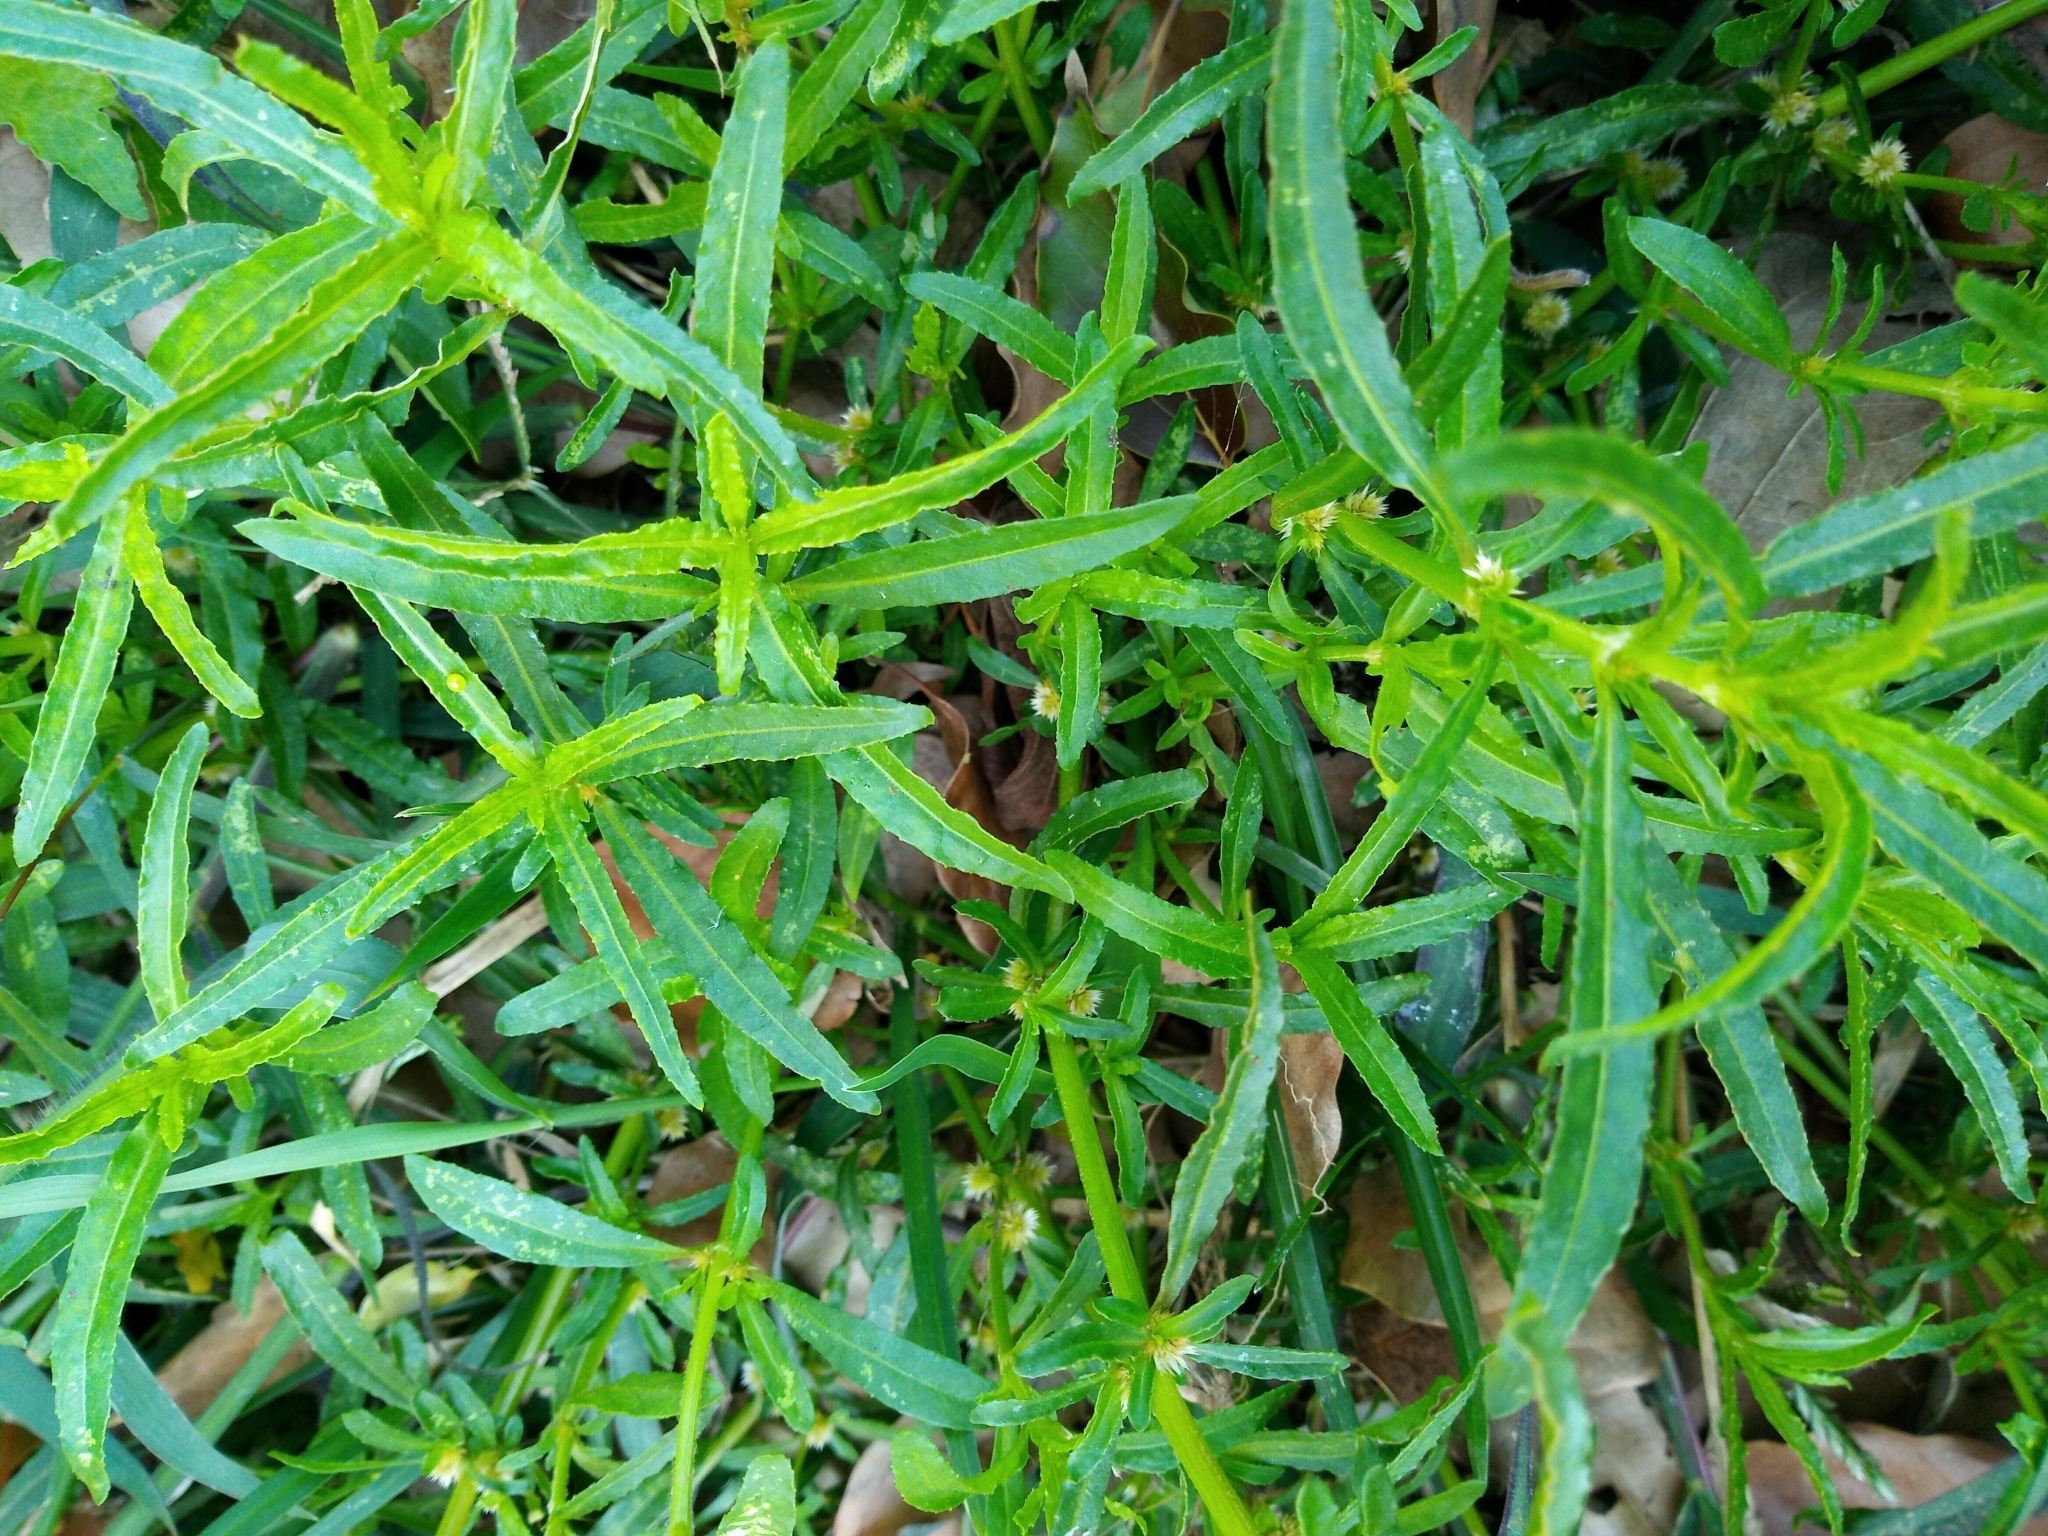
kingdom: Plantae
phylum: Tracheophyta
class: Magnoliopsida
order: Caryophyllales
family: Amaranthaceae
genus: Alternanthera
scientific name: Alternanthera sessilis
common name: Sessile joyweed
